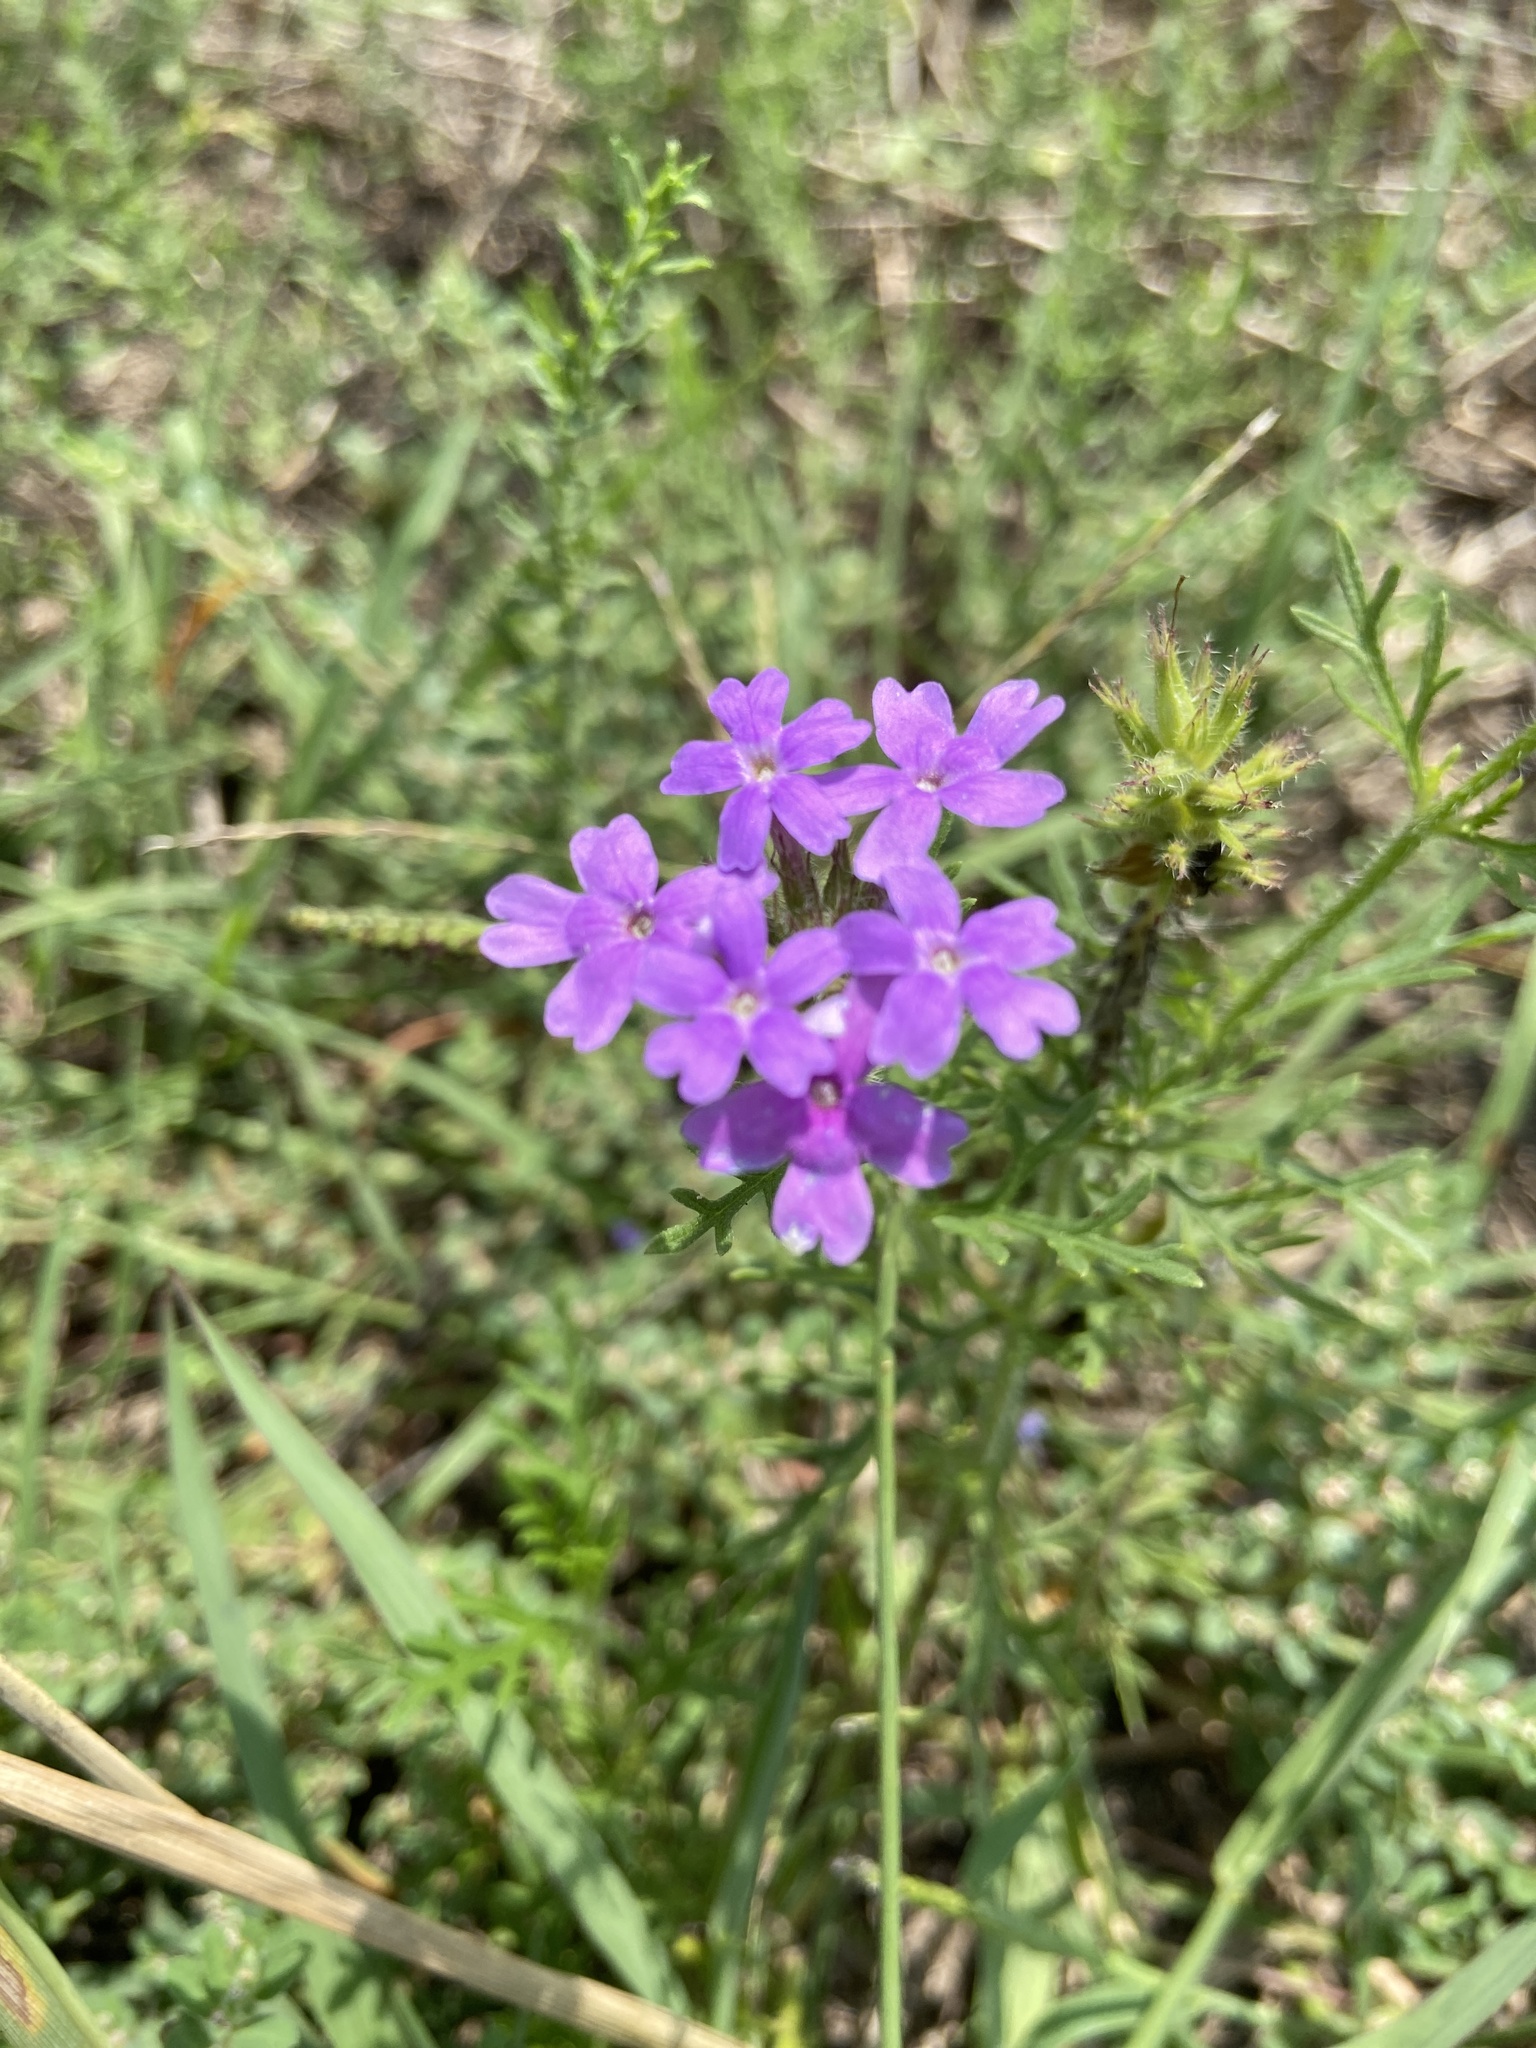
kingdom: Plantae
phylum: Tracheophyta
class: Magnoliopsida
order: Lamiales
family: Verbenaceae
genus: Verbena
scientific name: Verbena bipinnatifida
